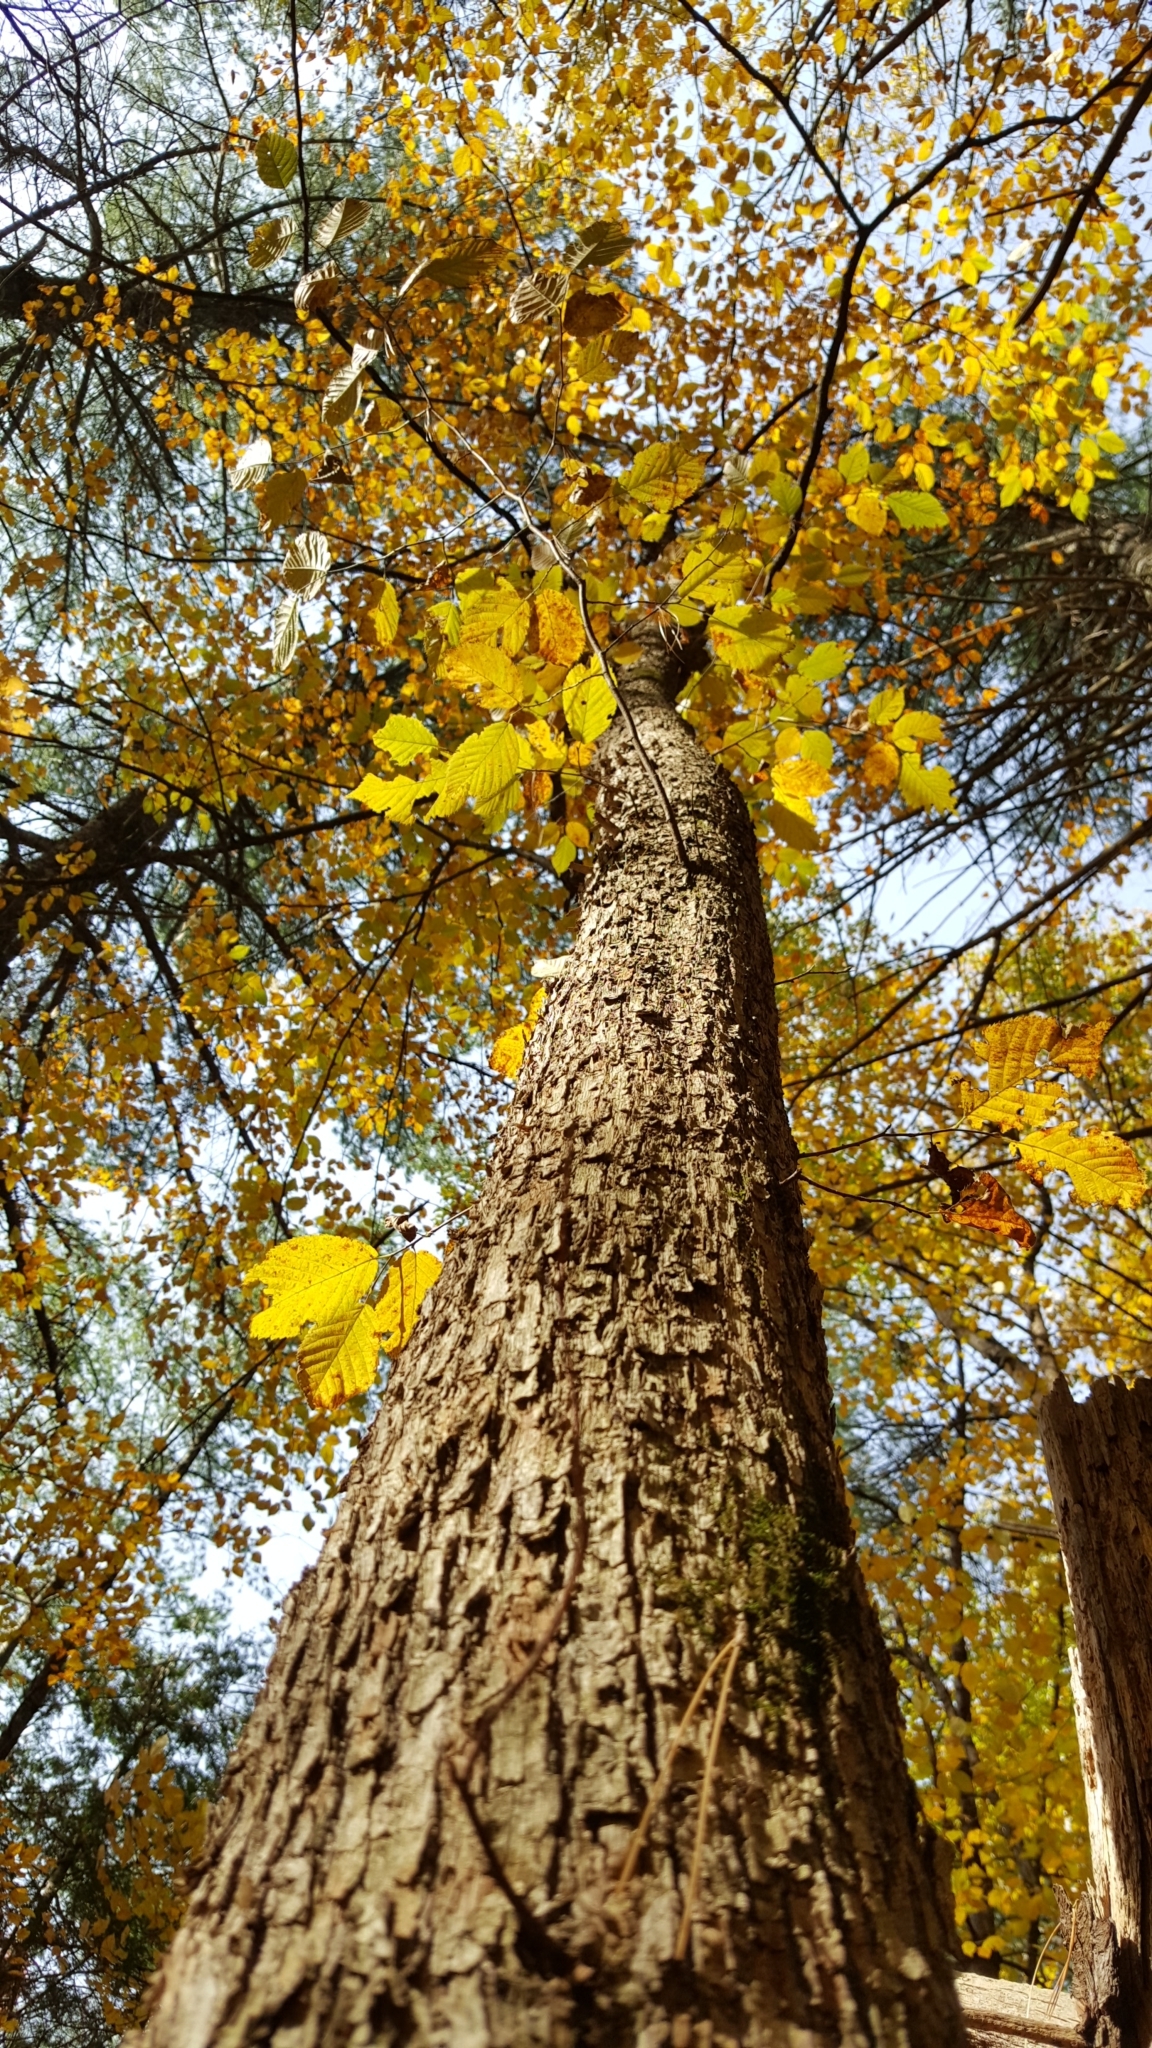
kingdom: Plantae
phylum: Tracheophyta
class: Magnoliopsida
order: Fagales
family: Betulaceae
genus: Ostrya
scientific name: Ostrya virginiana
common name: Ironwood
